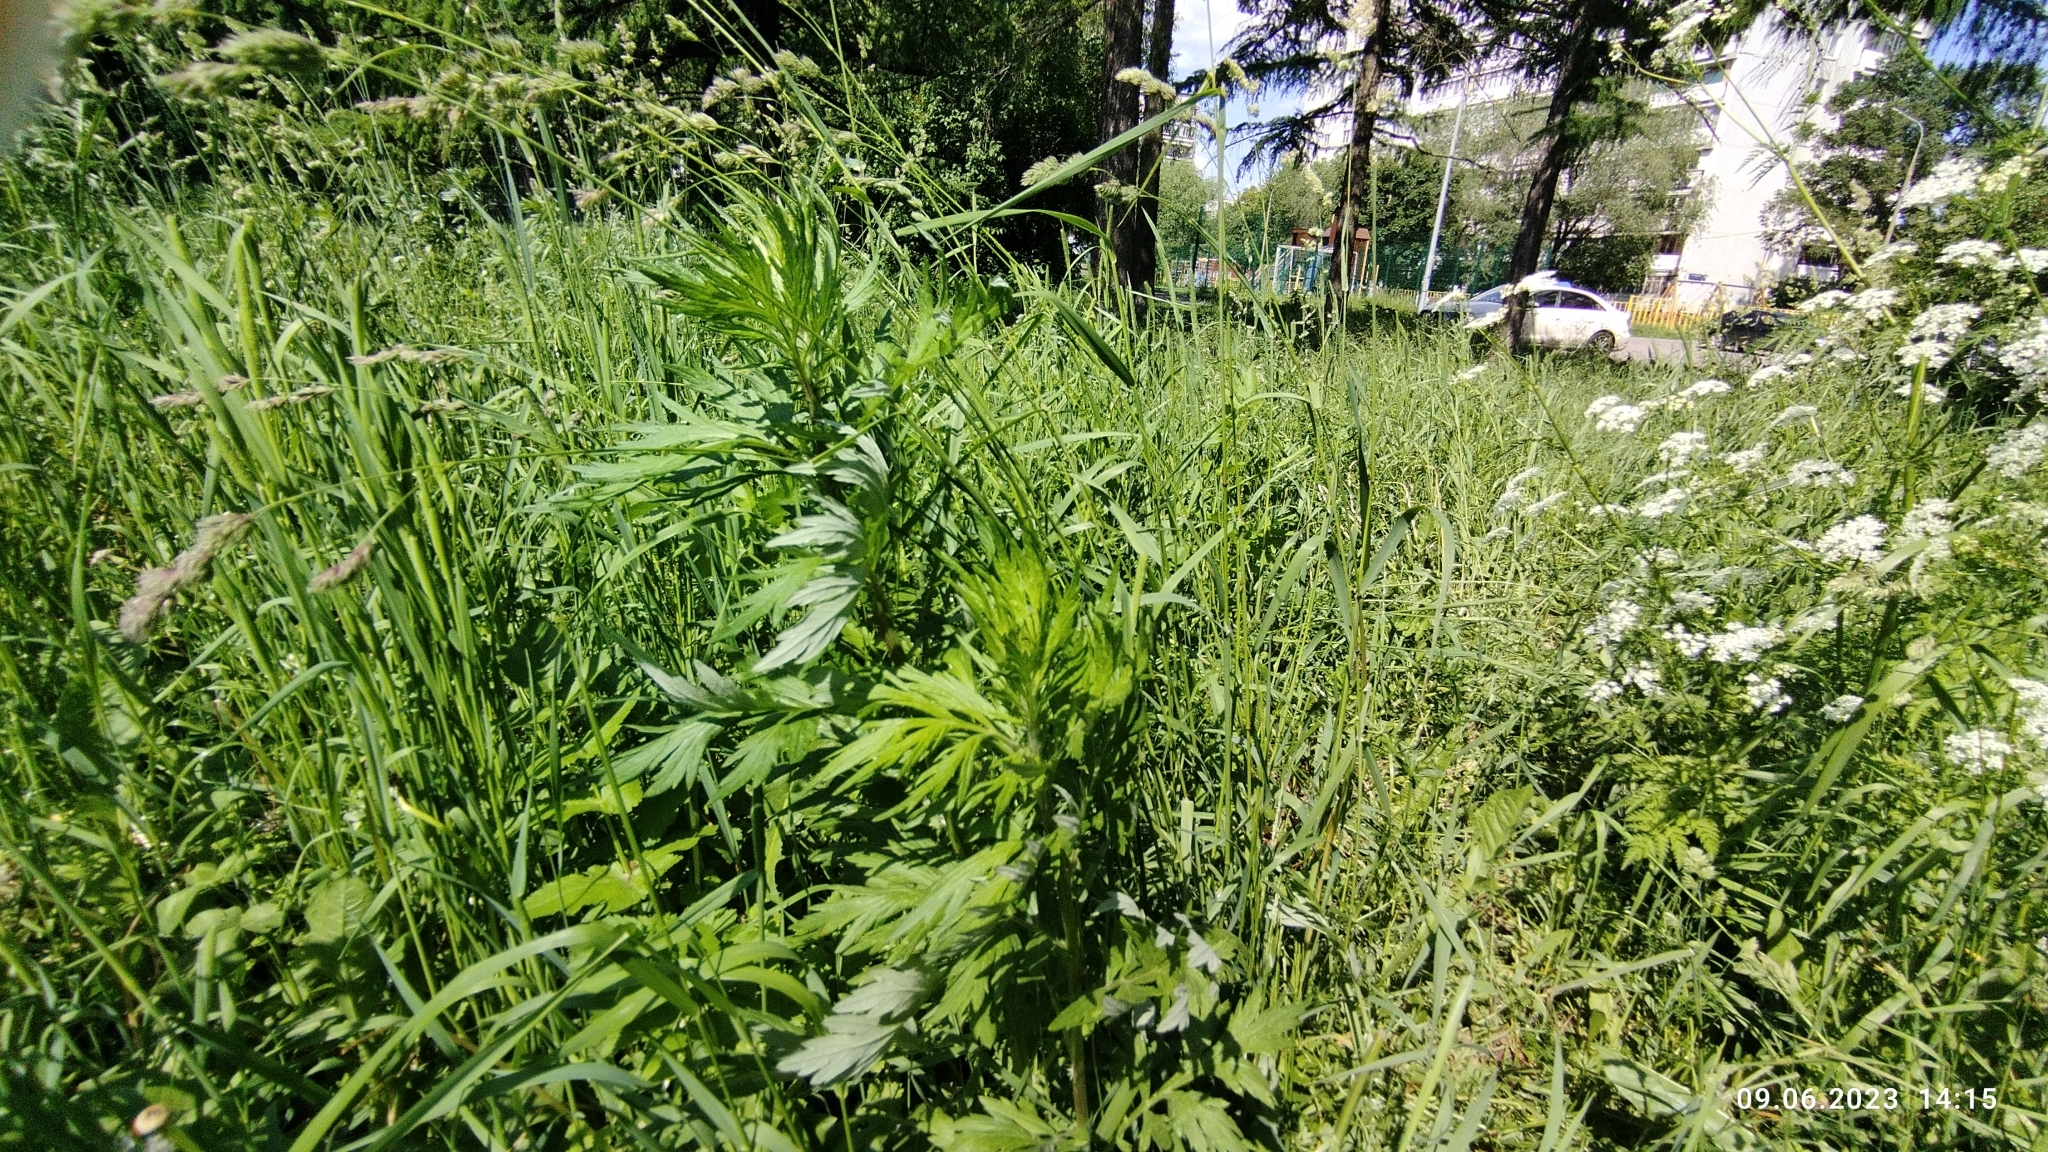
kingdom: Plantae
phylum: Tracheophyta
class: Magnoliopsida
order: Asterales
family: Asteraceae
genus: Artemisia
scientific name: Artemisia vulgaris
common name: Mugwort
